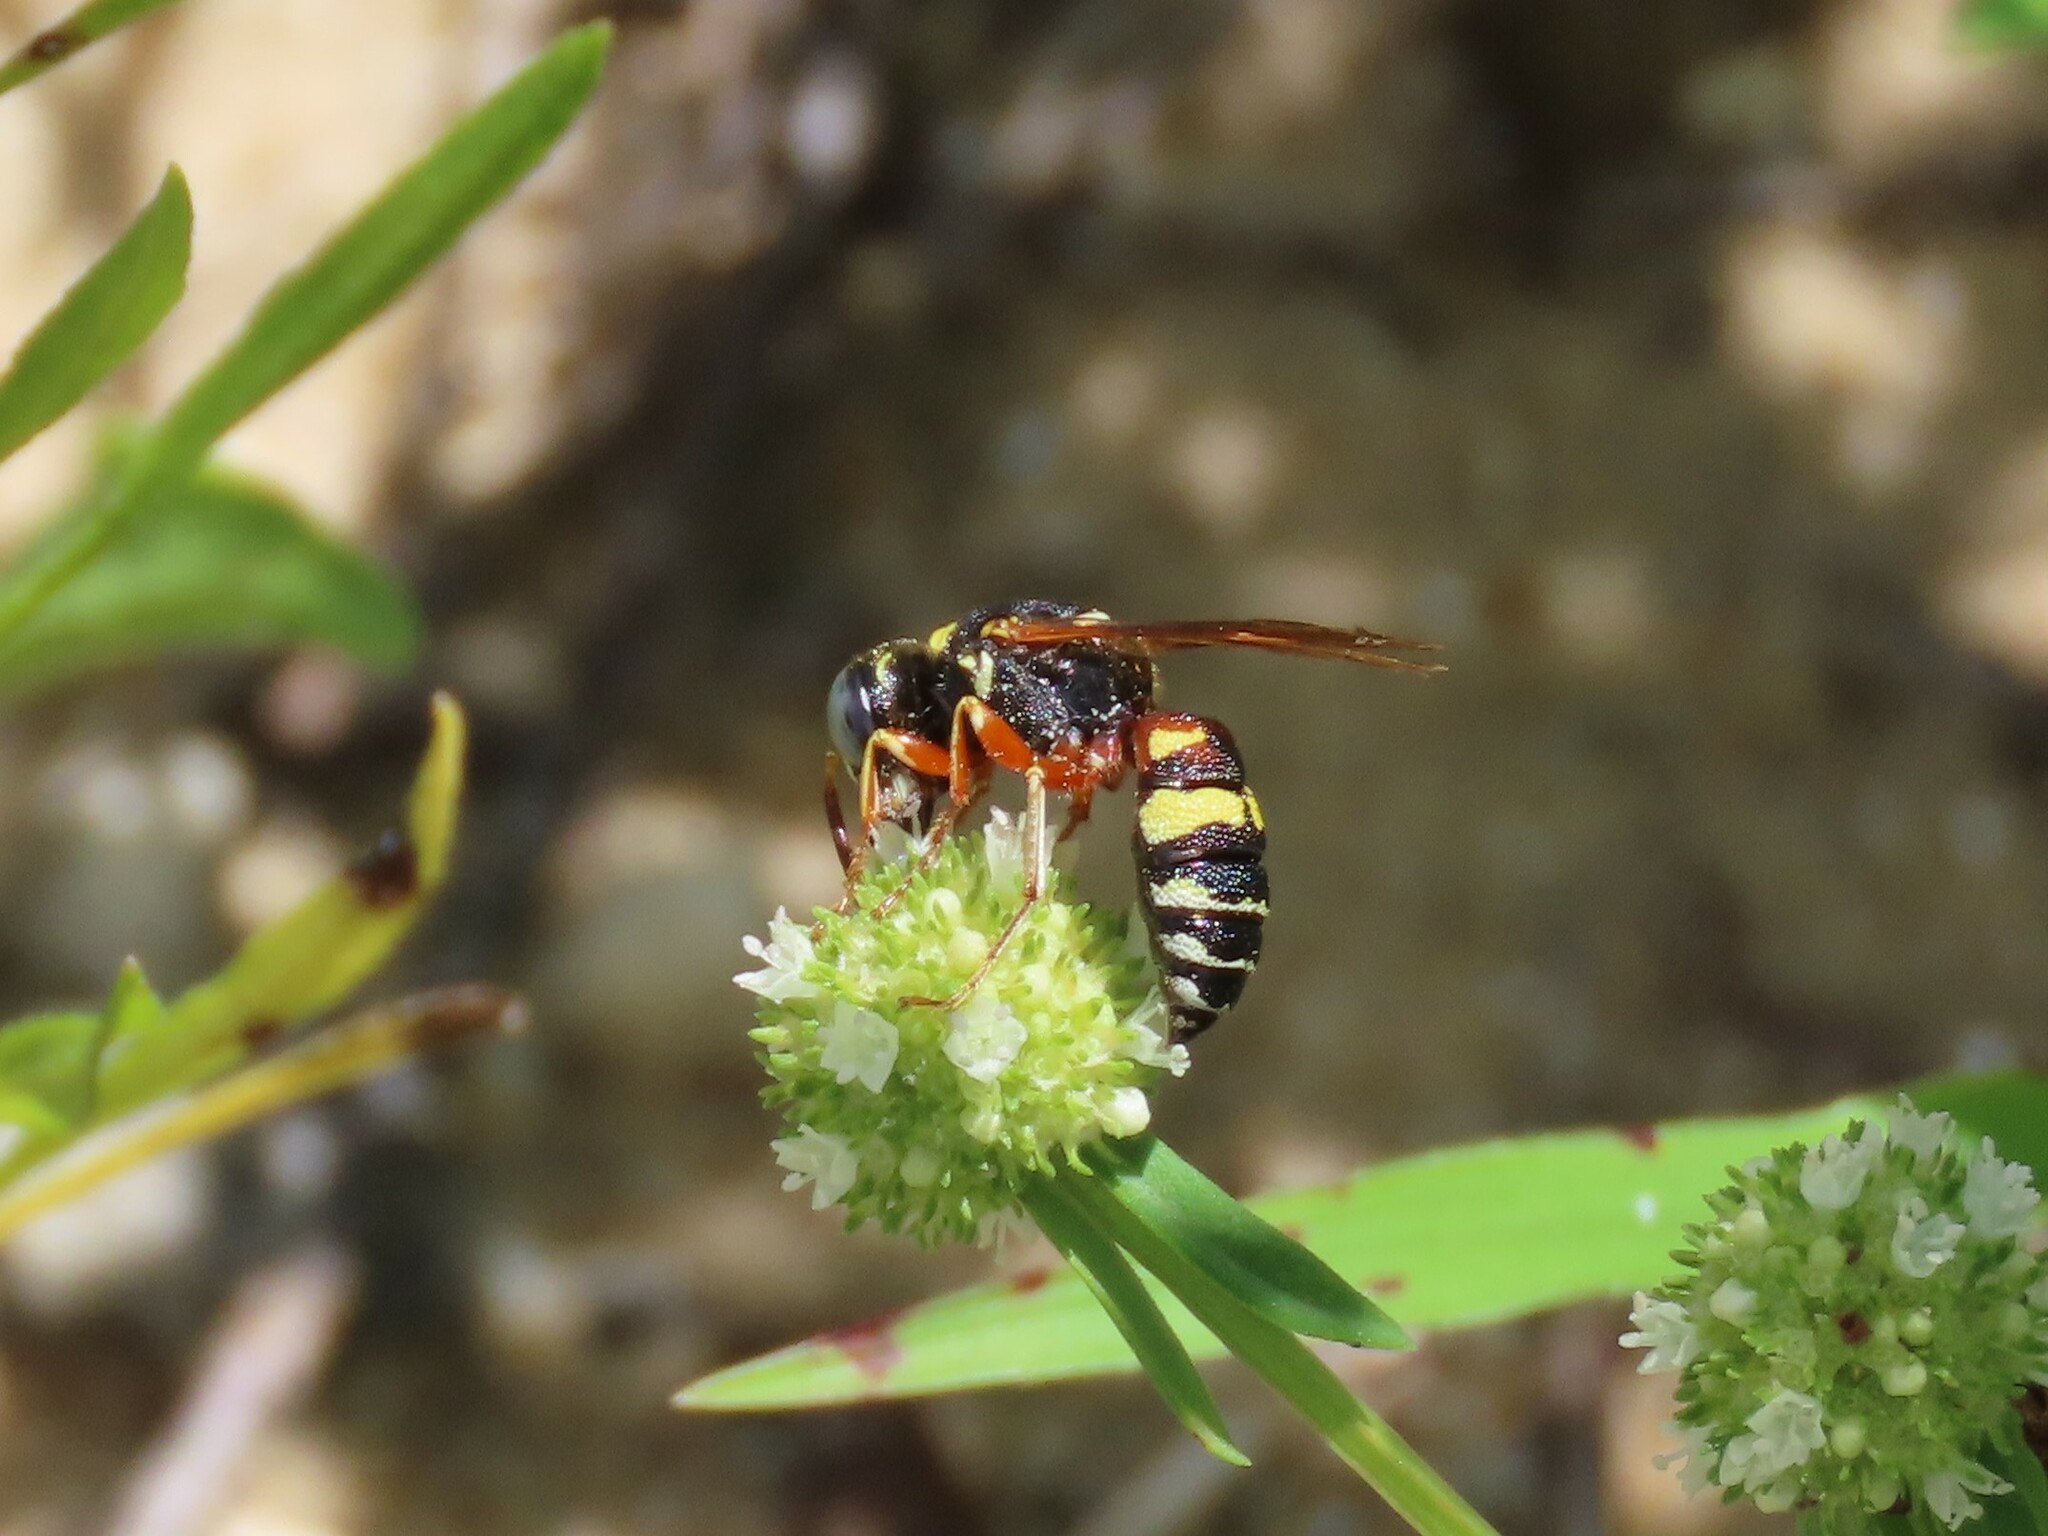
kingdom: Animalia
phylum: Arthropoda
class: Insecta
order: Hymenoptera
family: Crabronidae
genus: Philanthus
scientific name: Philanthus ventilabris
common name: Bee-killer wasp
